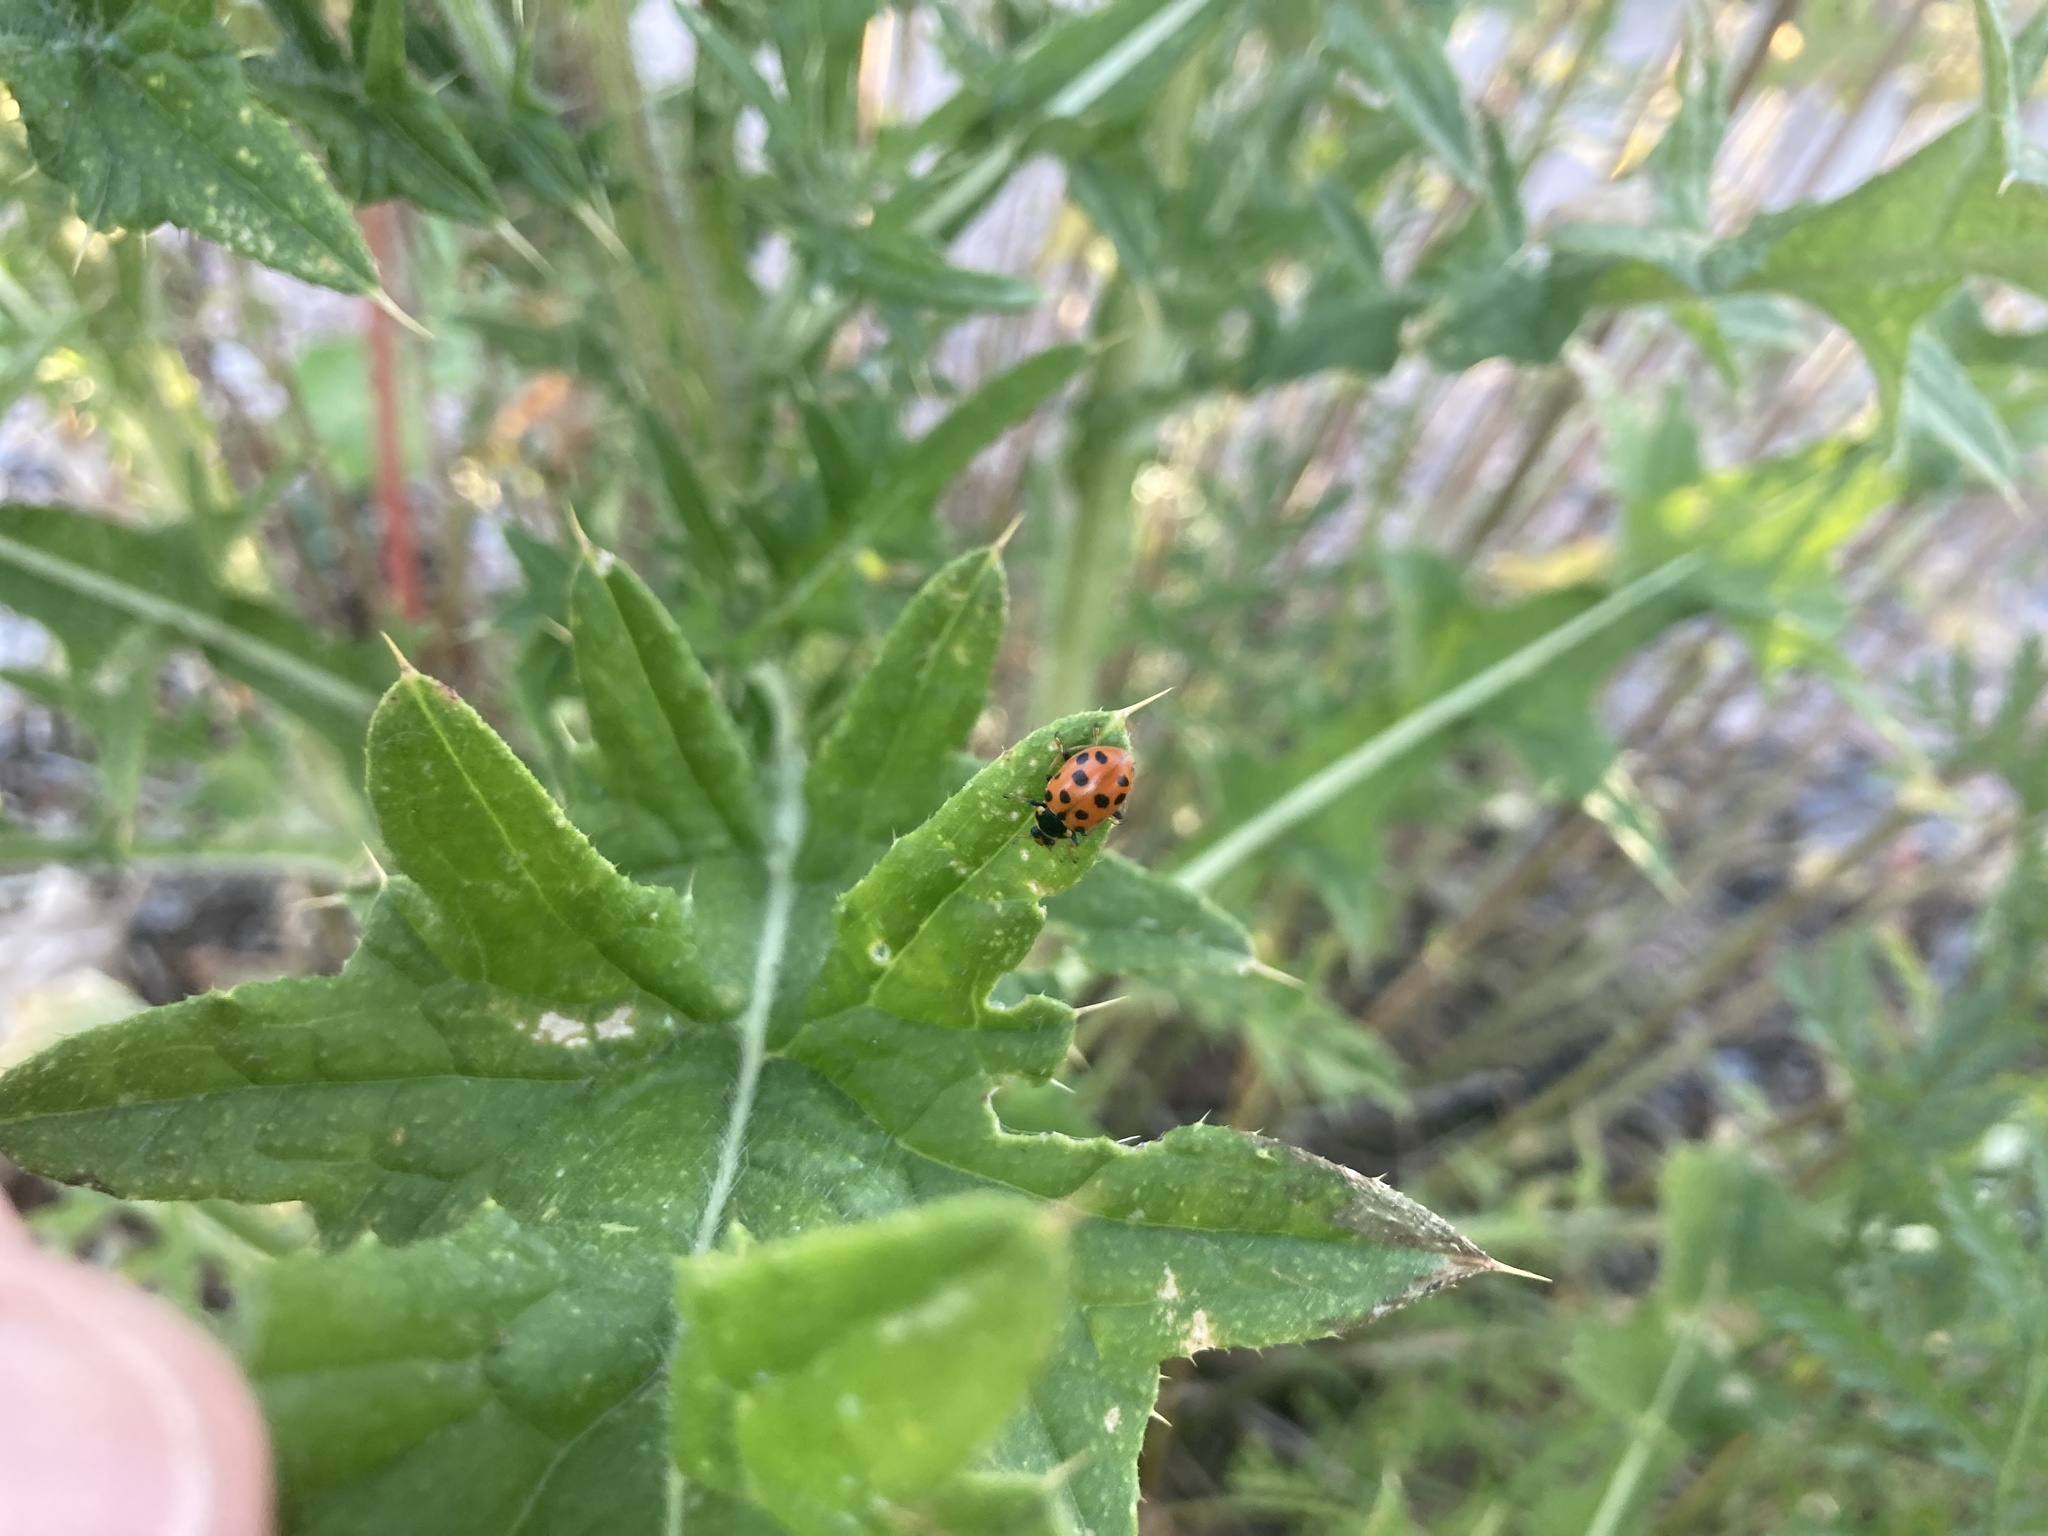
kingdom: Animalia
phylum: Arthropoda
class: Insecta
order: Coleoptera
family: Coccinellidae
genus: Hippodamia
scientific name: Hippodamia tredecimpunctata
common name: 13-spot ladybird
